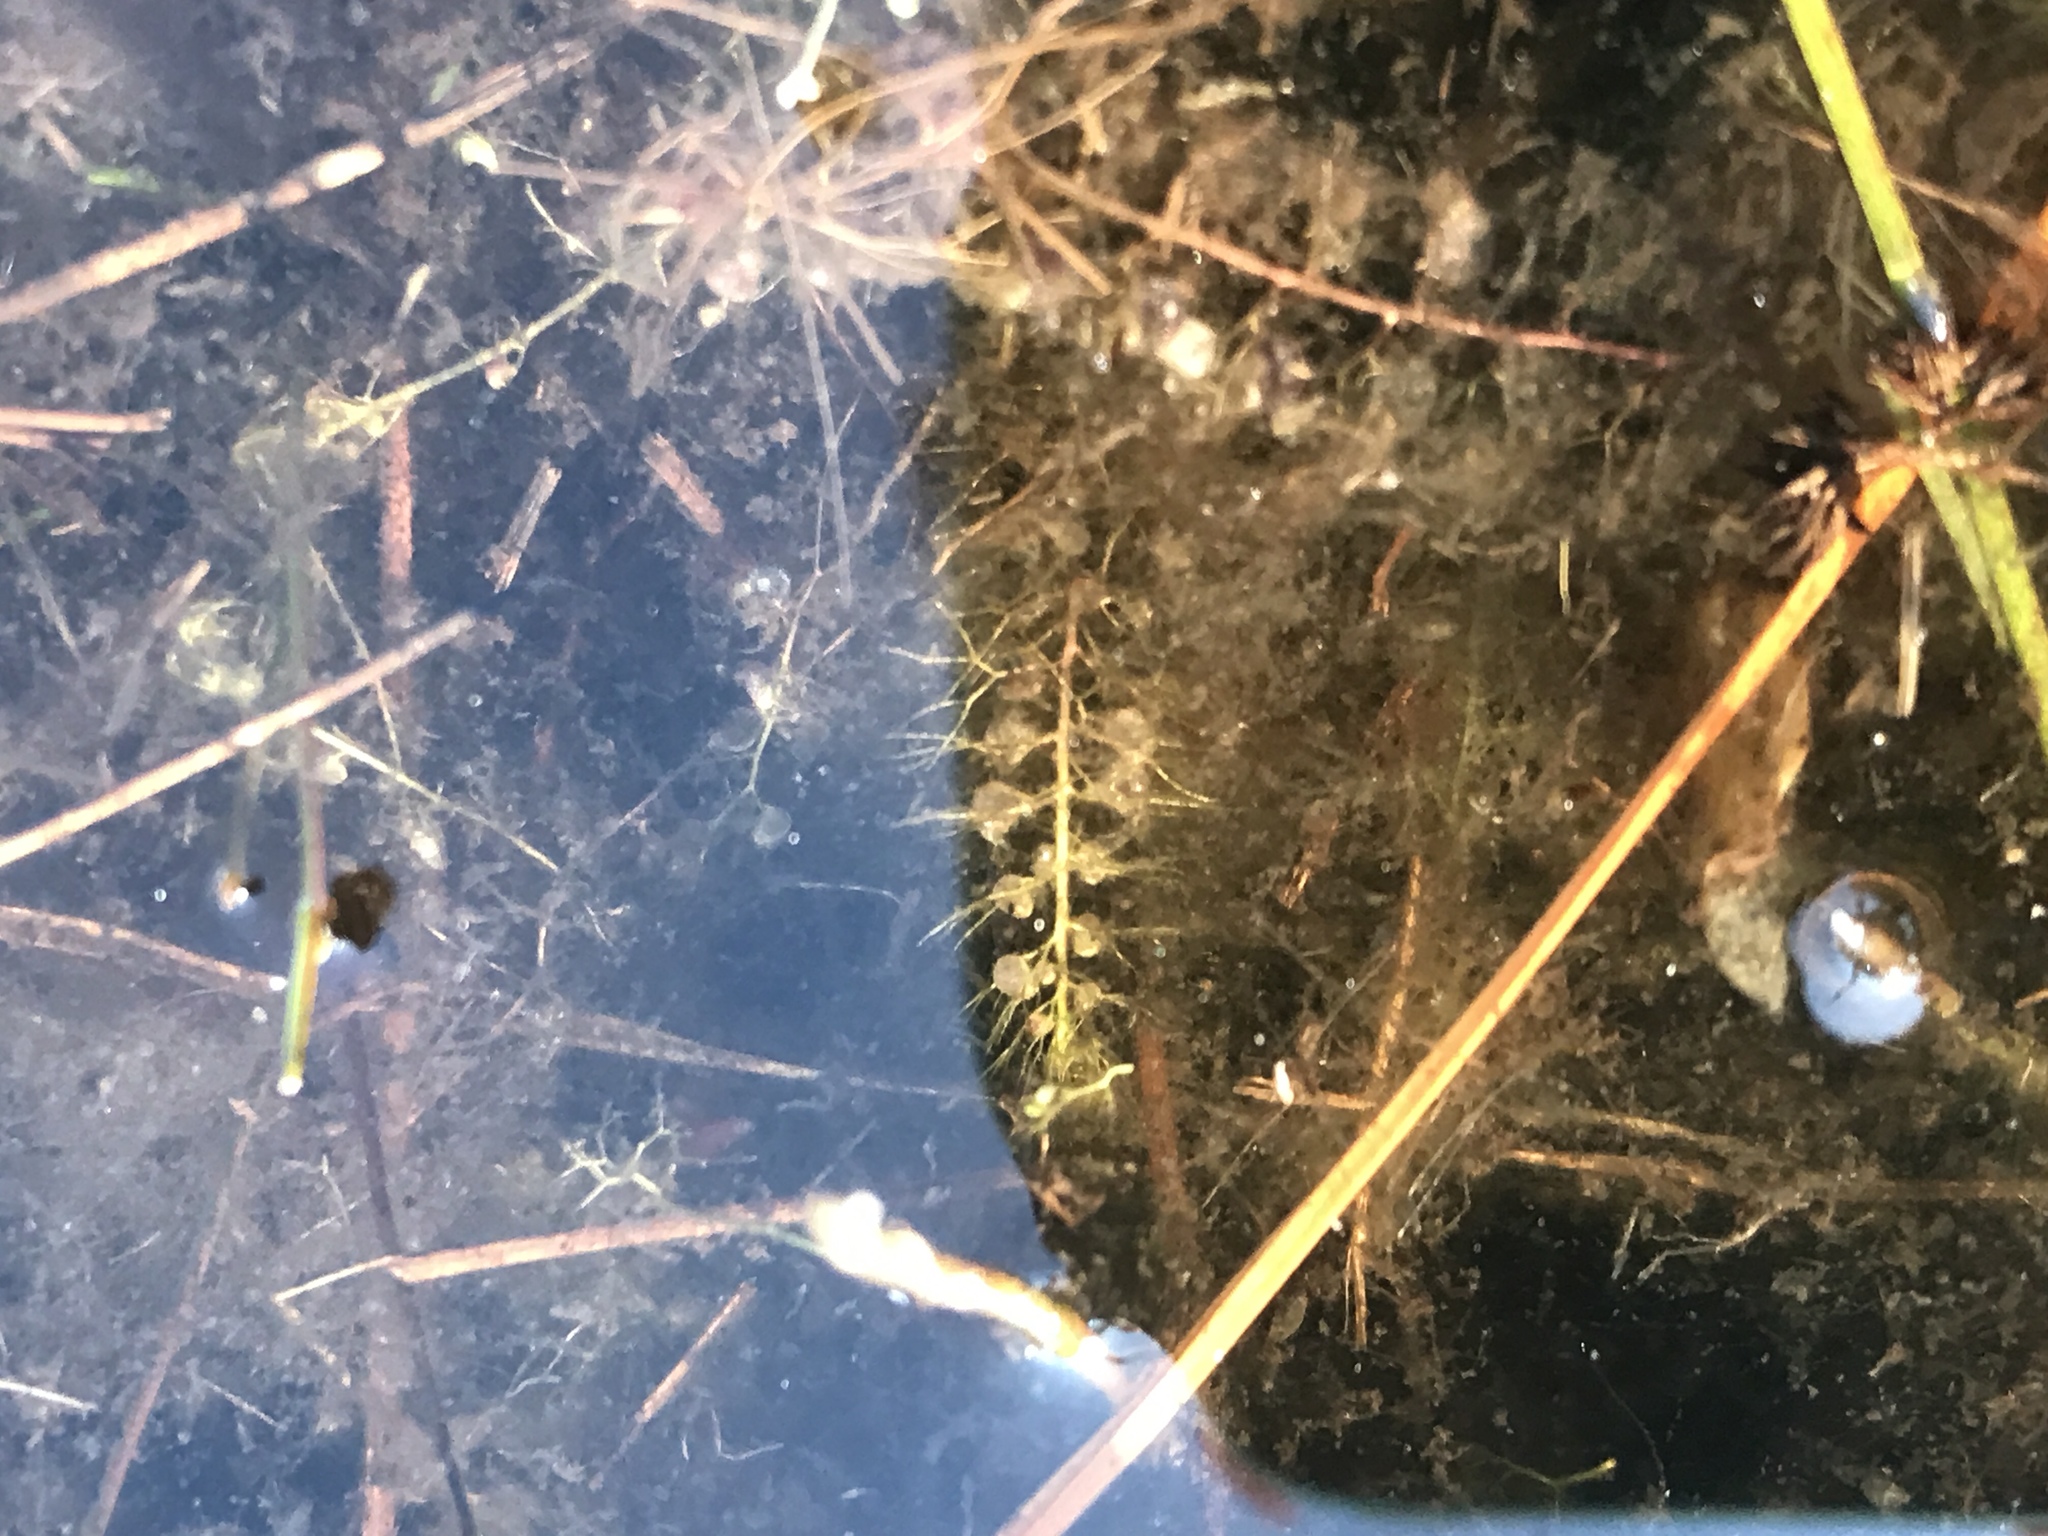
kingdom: Plantae
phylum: Tracheophyta
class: Magnoliopsida
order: Lamiales
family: Lentibulariaceae
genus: Utricularia
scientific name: Utricularia striata
